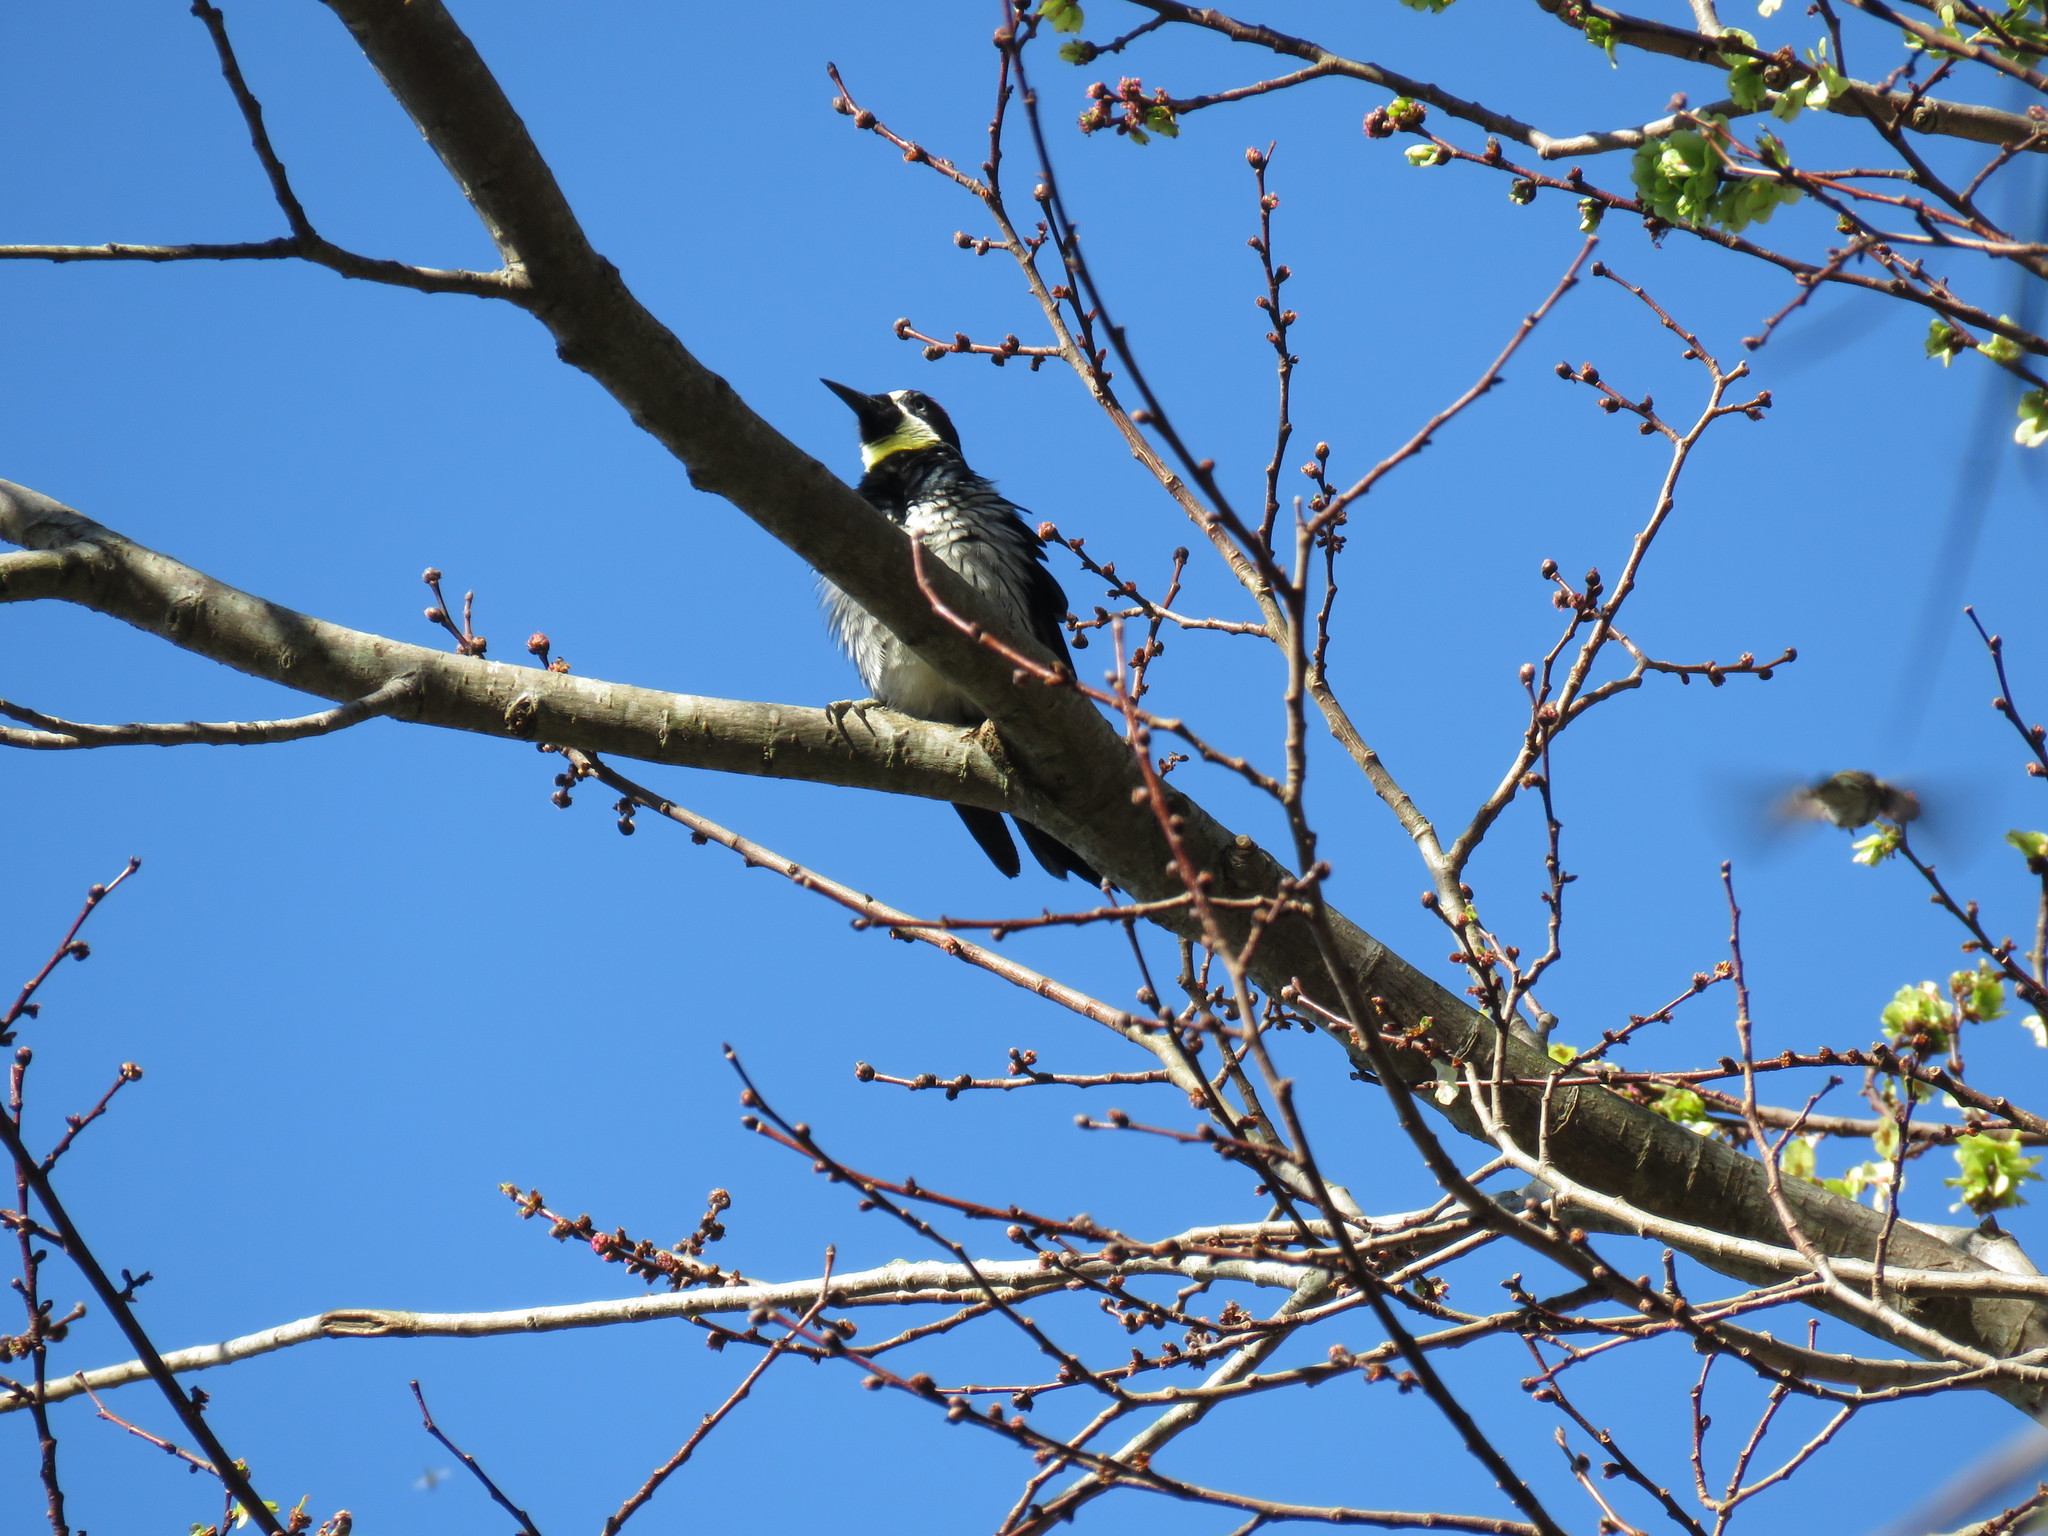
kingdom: Animalia
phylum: Chordata
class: Aves
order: Piciformes
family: Picidae
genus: Melanerpes
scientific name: Melanerpes formicivorus
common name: Acorn woodpecker
